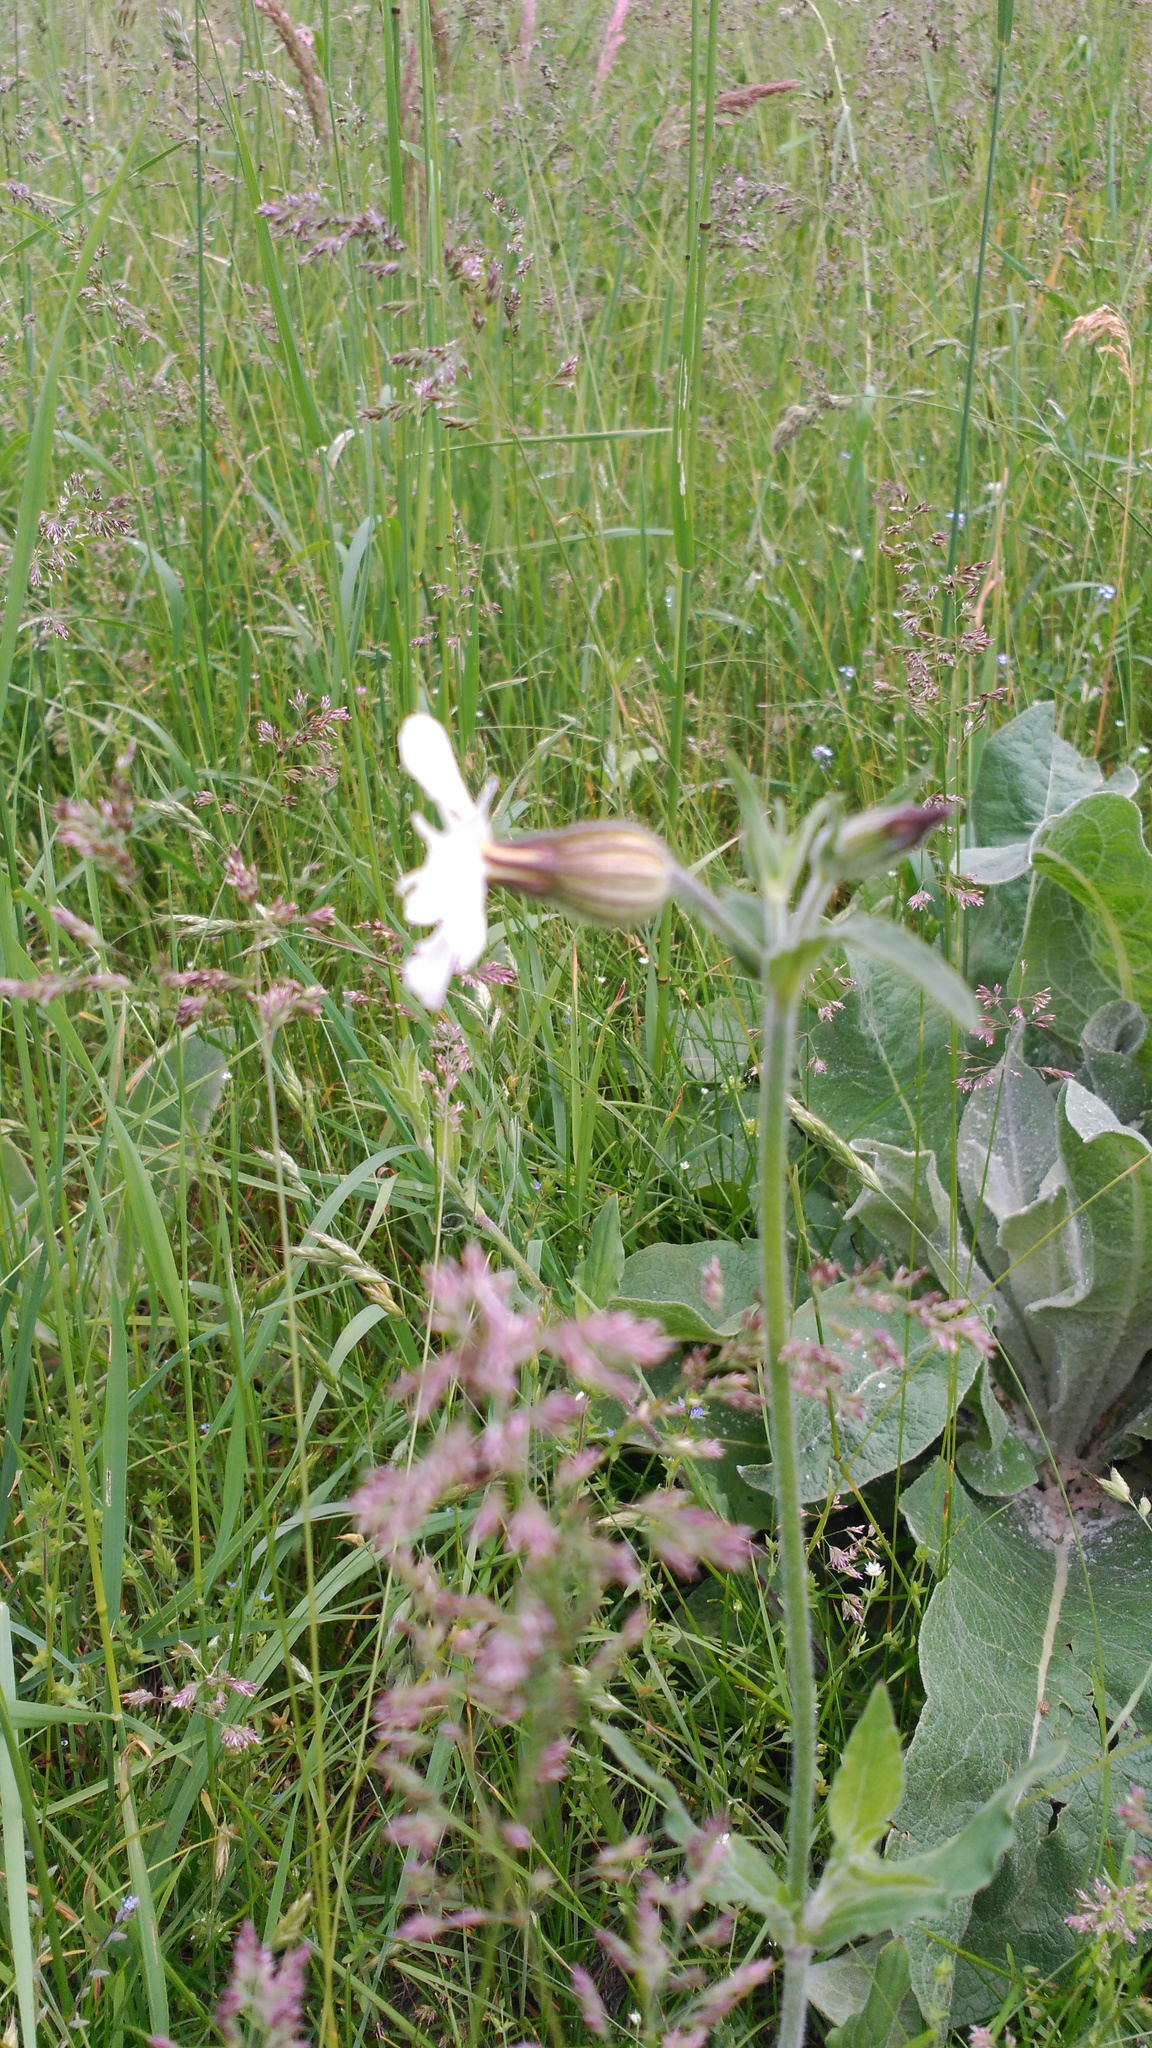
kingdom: Plantae
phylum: Tracheophyta
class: Magnoliopsida
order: Caryophyllales
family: Caryophyllaceae
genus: Silene
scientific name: Silene latifolia
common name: White campion
